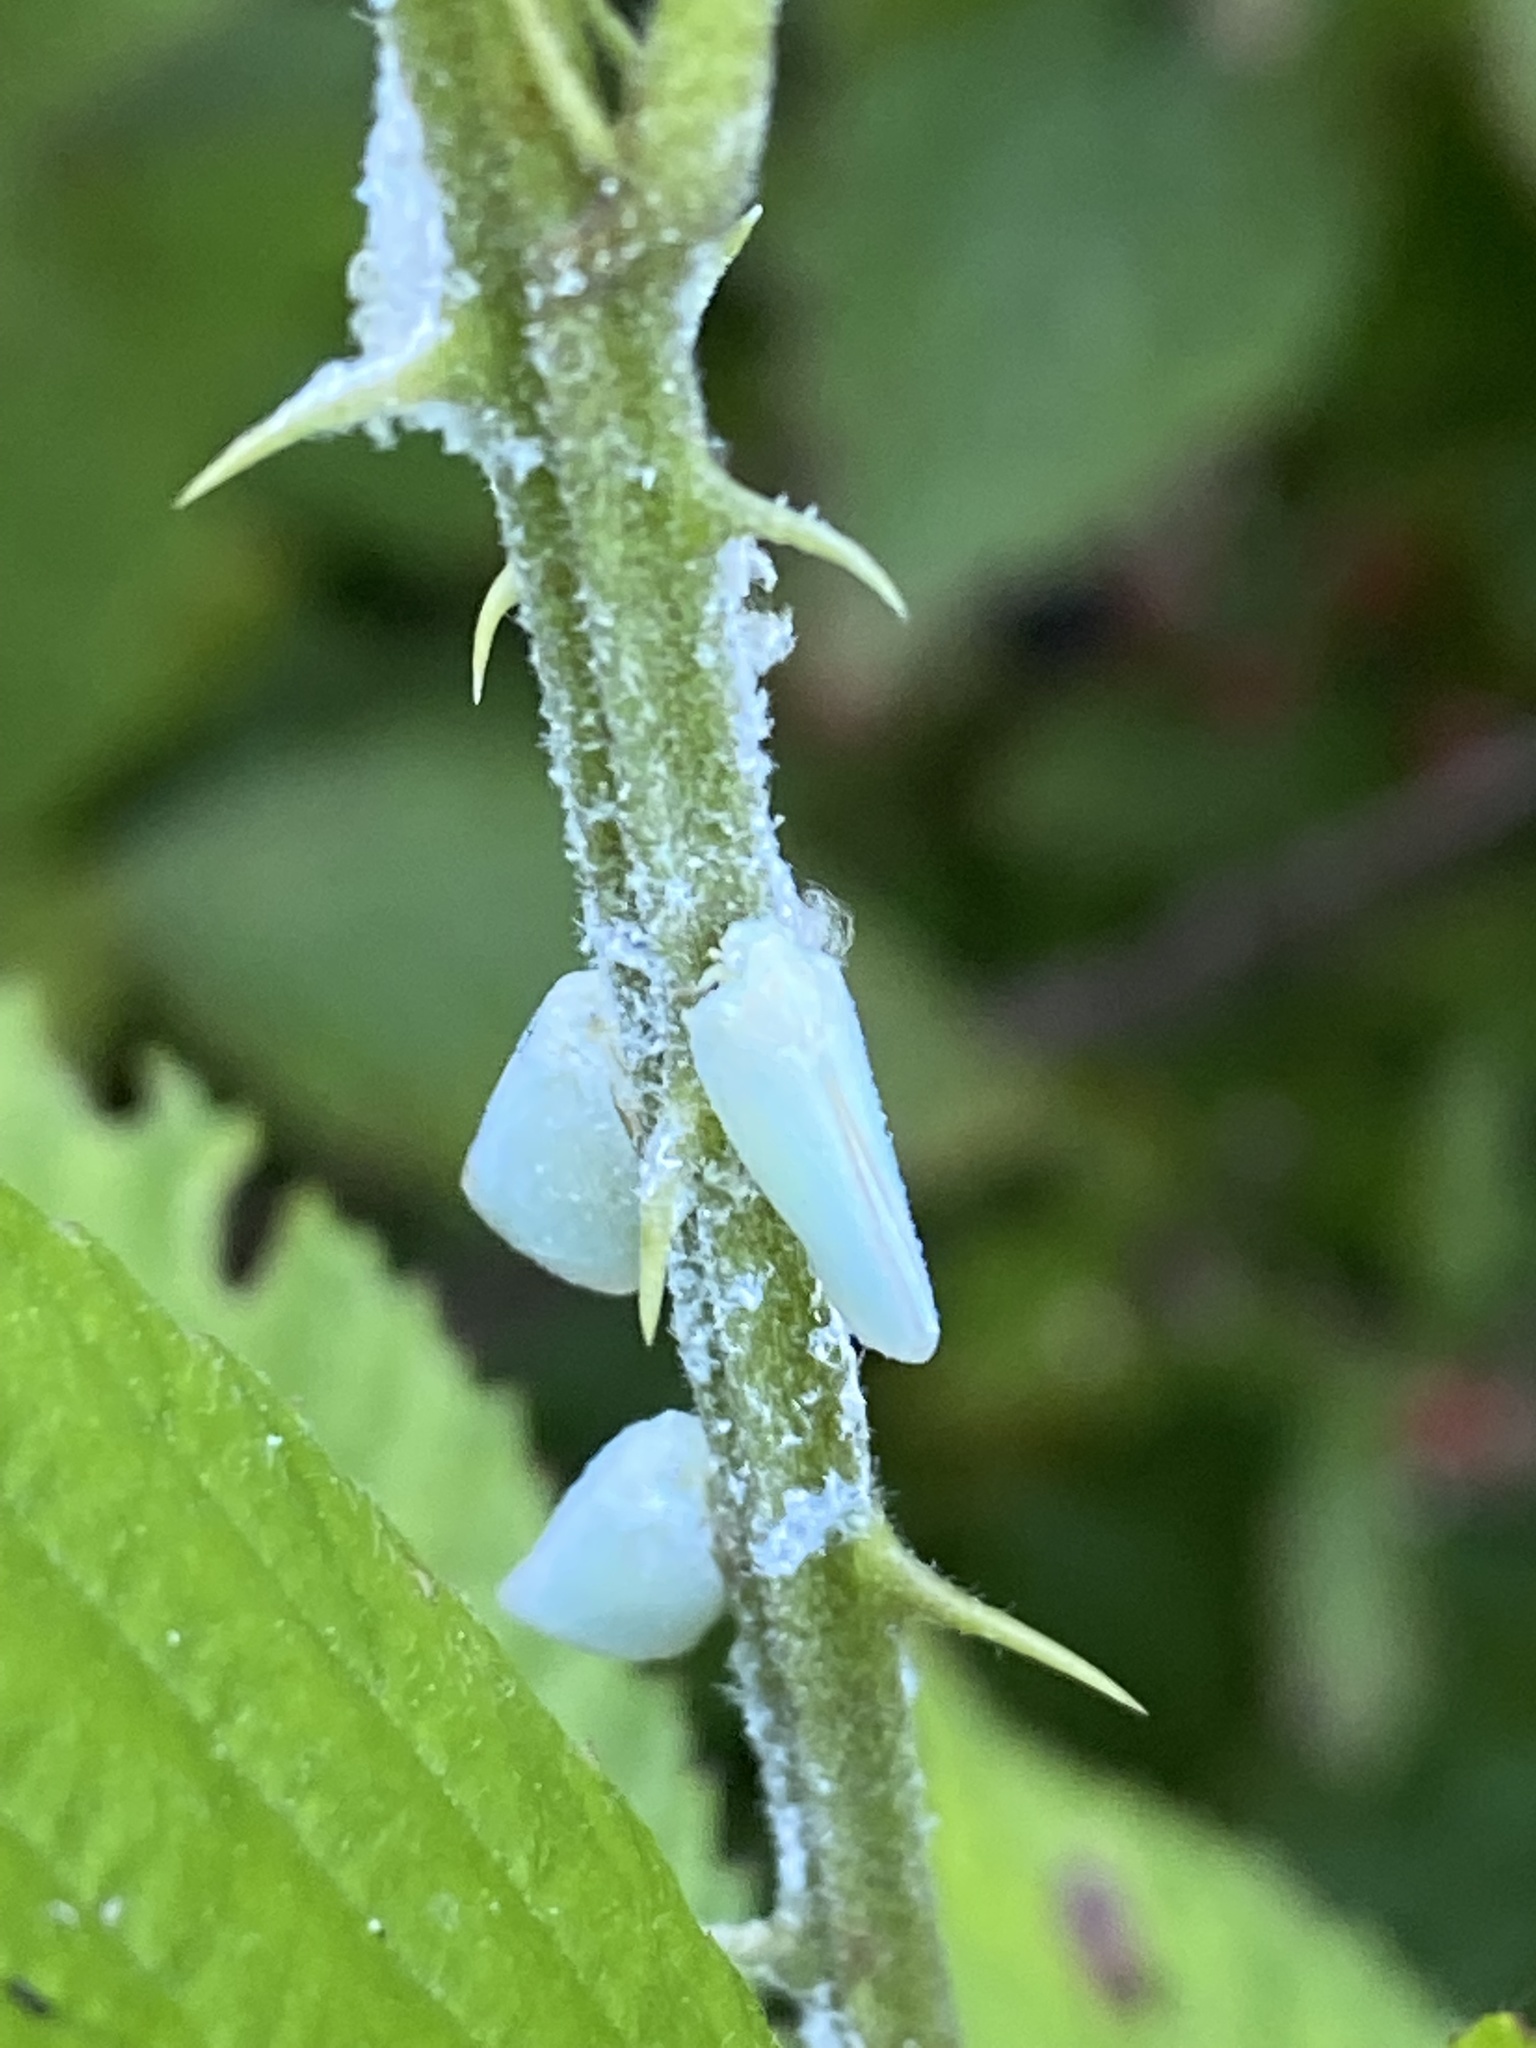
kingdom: Animalia
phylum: Arthropoda
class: Insecta
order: Hemiptera
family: Flatidae
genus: Flatormenis
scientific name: Flatormenis proxima
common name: Northern flatid planthopper
